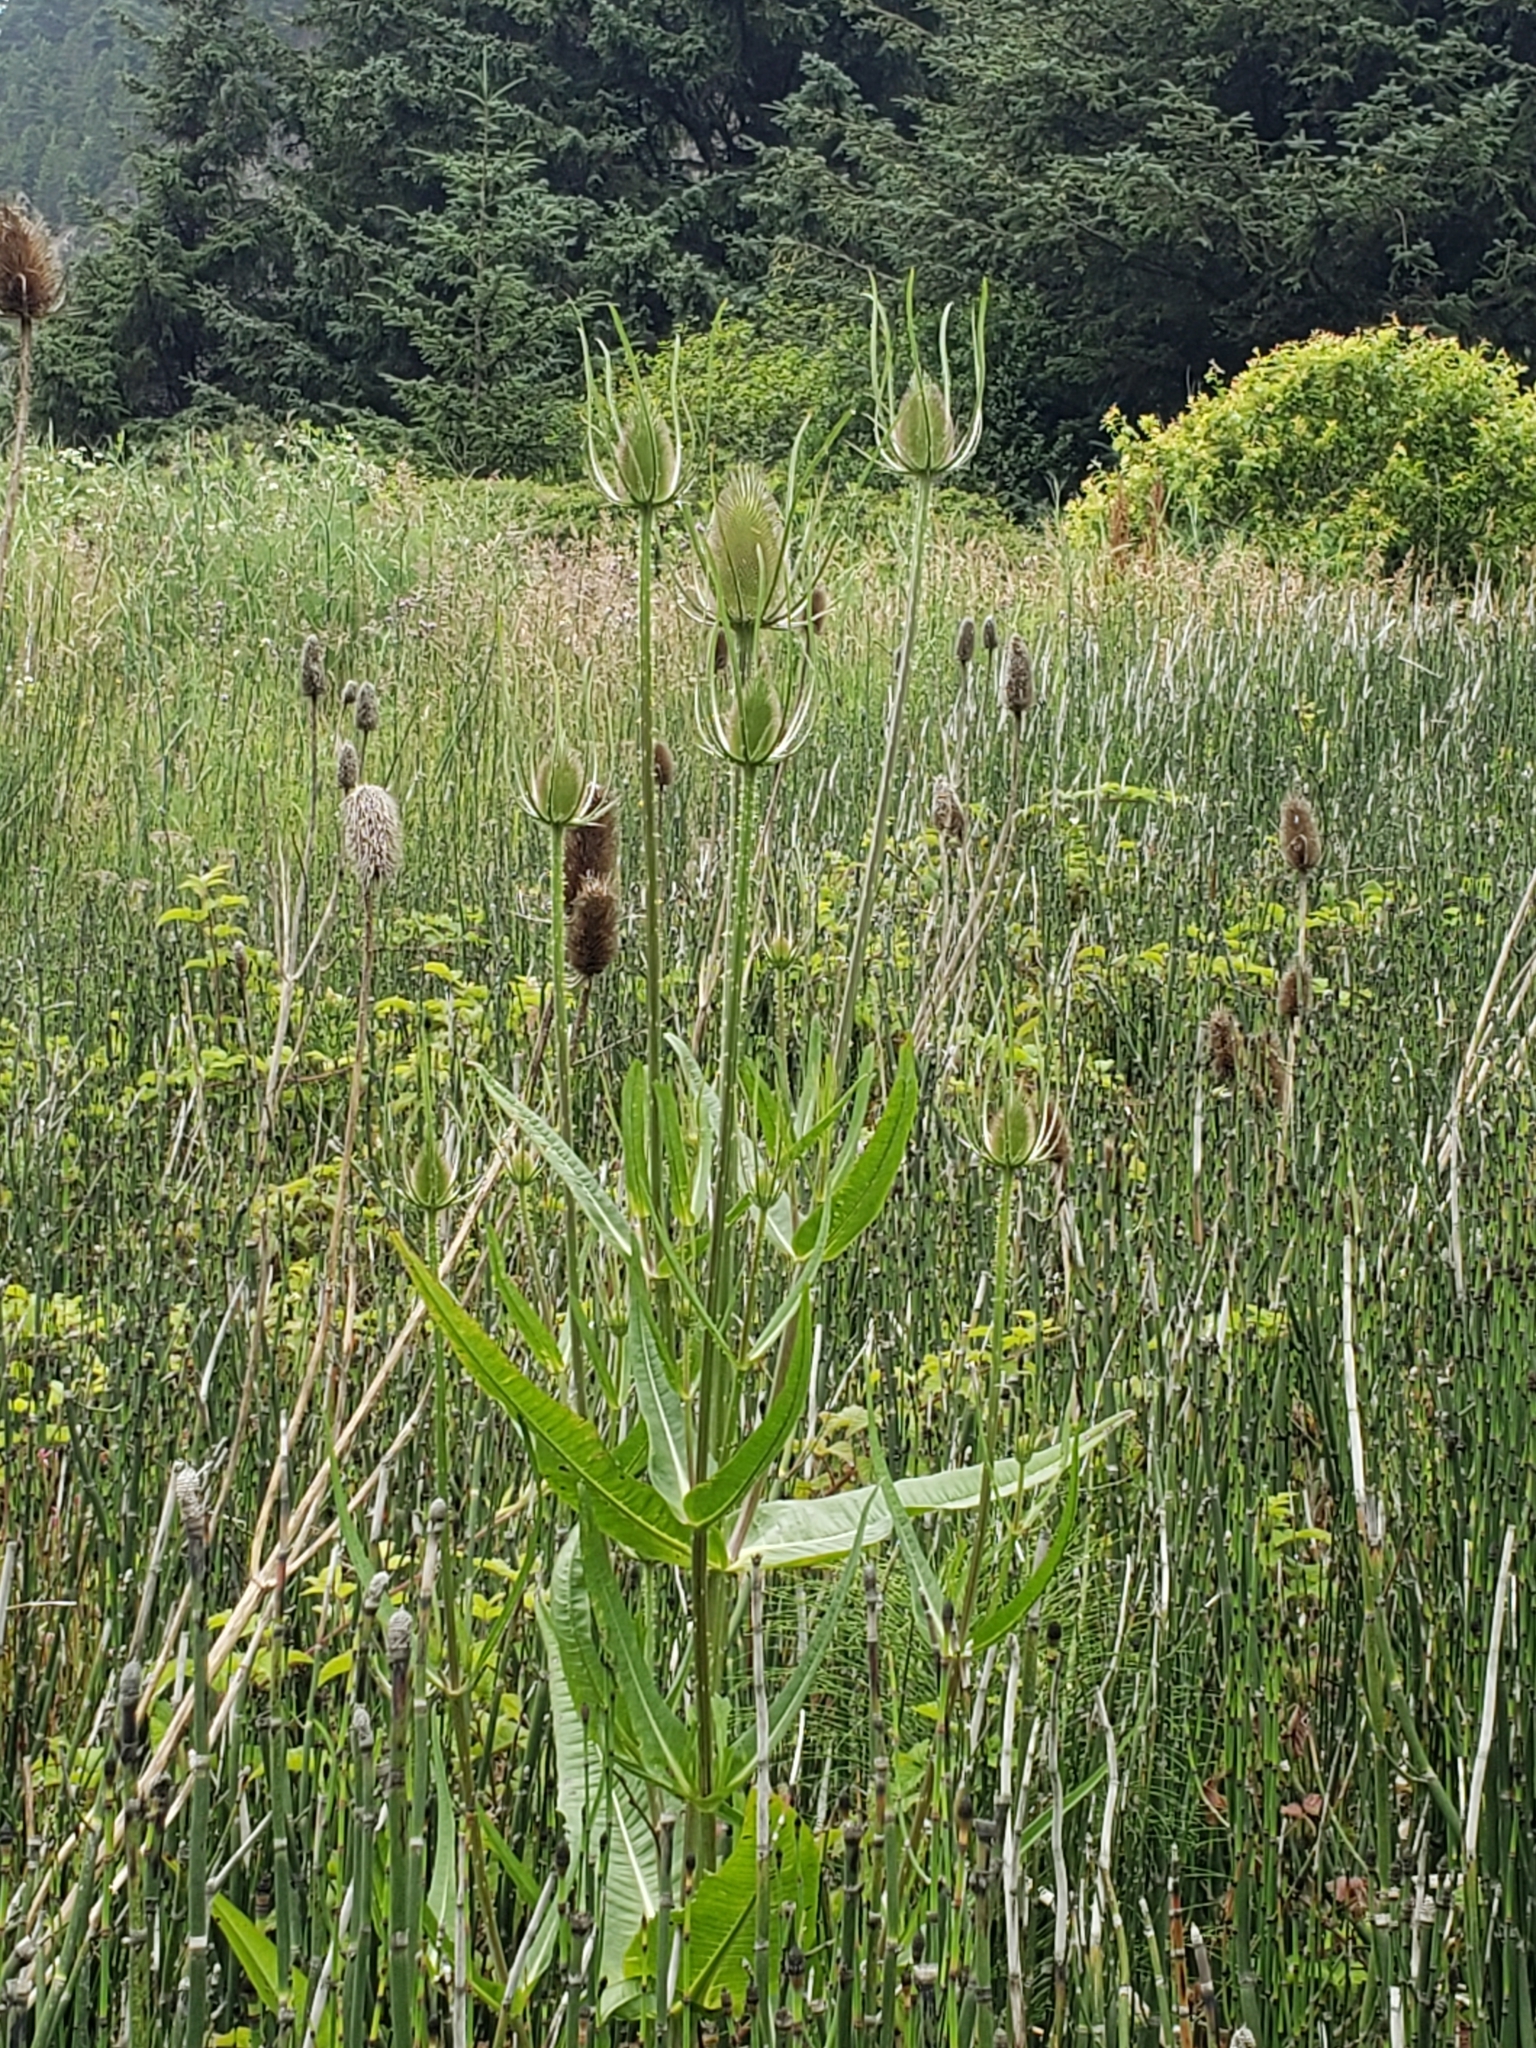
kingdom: Plantae
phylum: Tracheophyta
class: Magnoliopsida
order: Dipsacales
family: Caprifoliaceae
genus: Dipsacus
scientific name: Dipsacus fullonum
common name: Teasel
